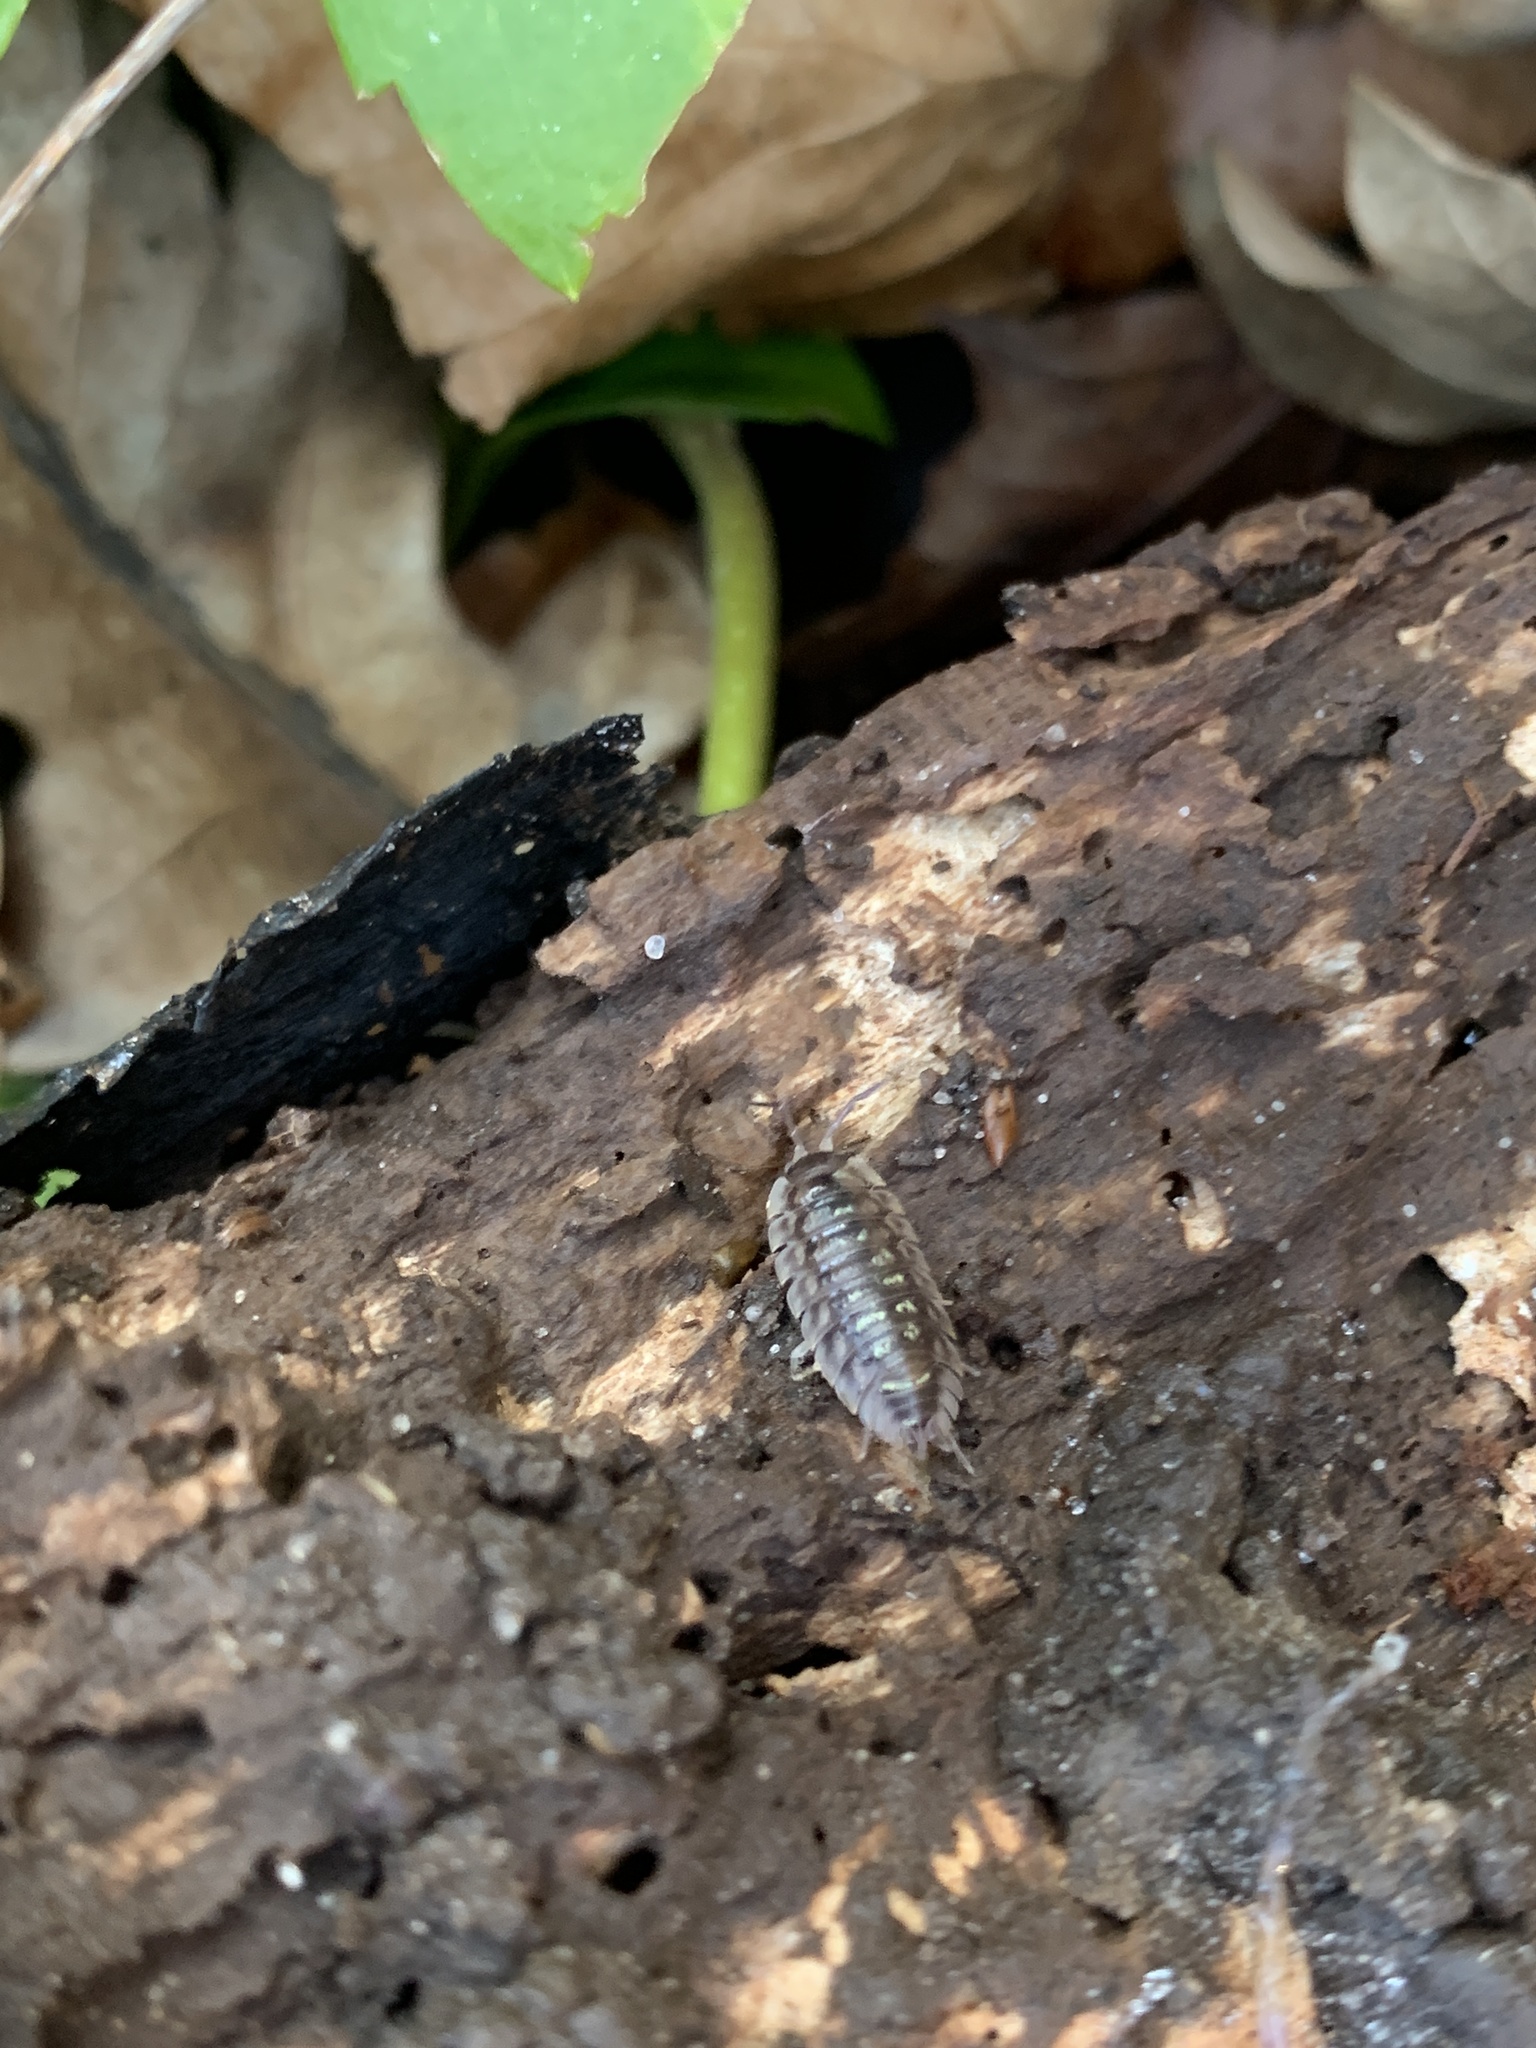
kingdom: Animalia
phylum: Arthropoda
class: Malacostraca
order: Isopoda
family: Oniscidae
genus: Oniscus
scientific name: Oniscus asellus
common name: Common shiny woodlouse
